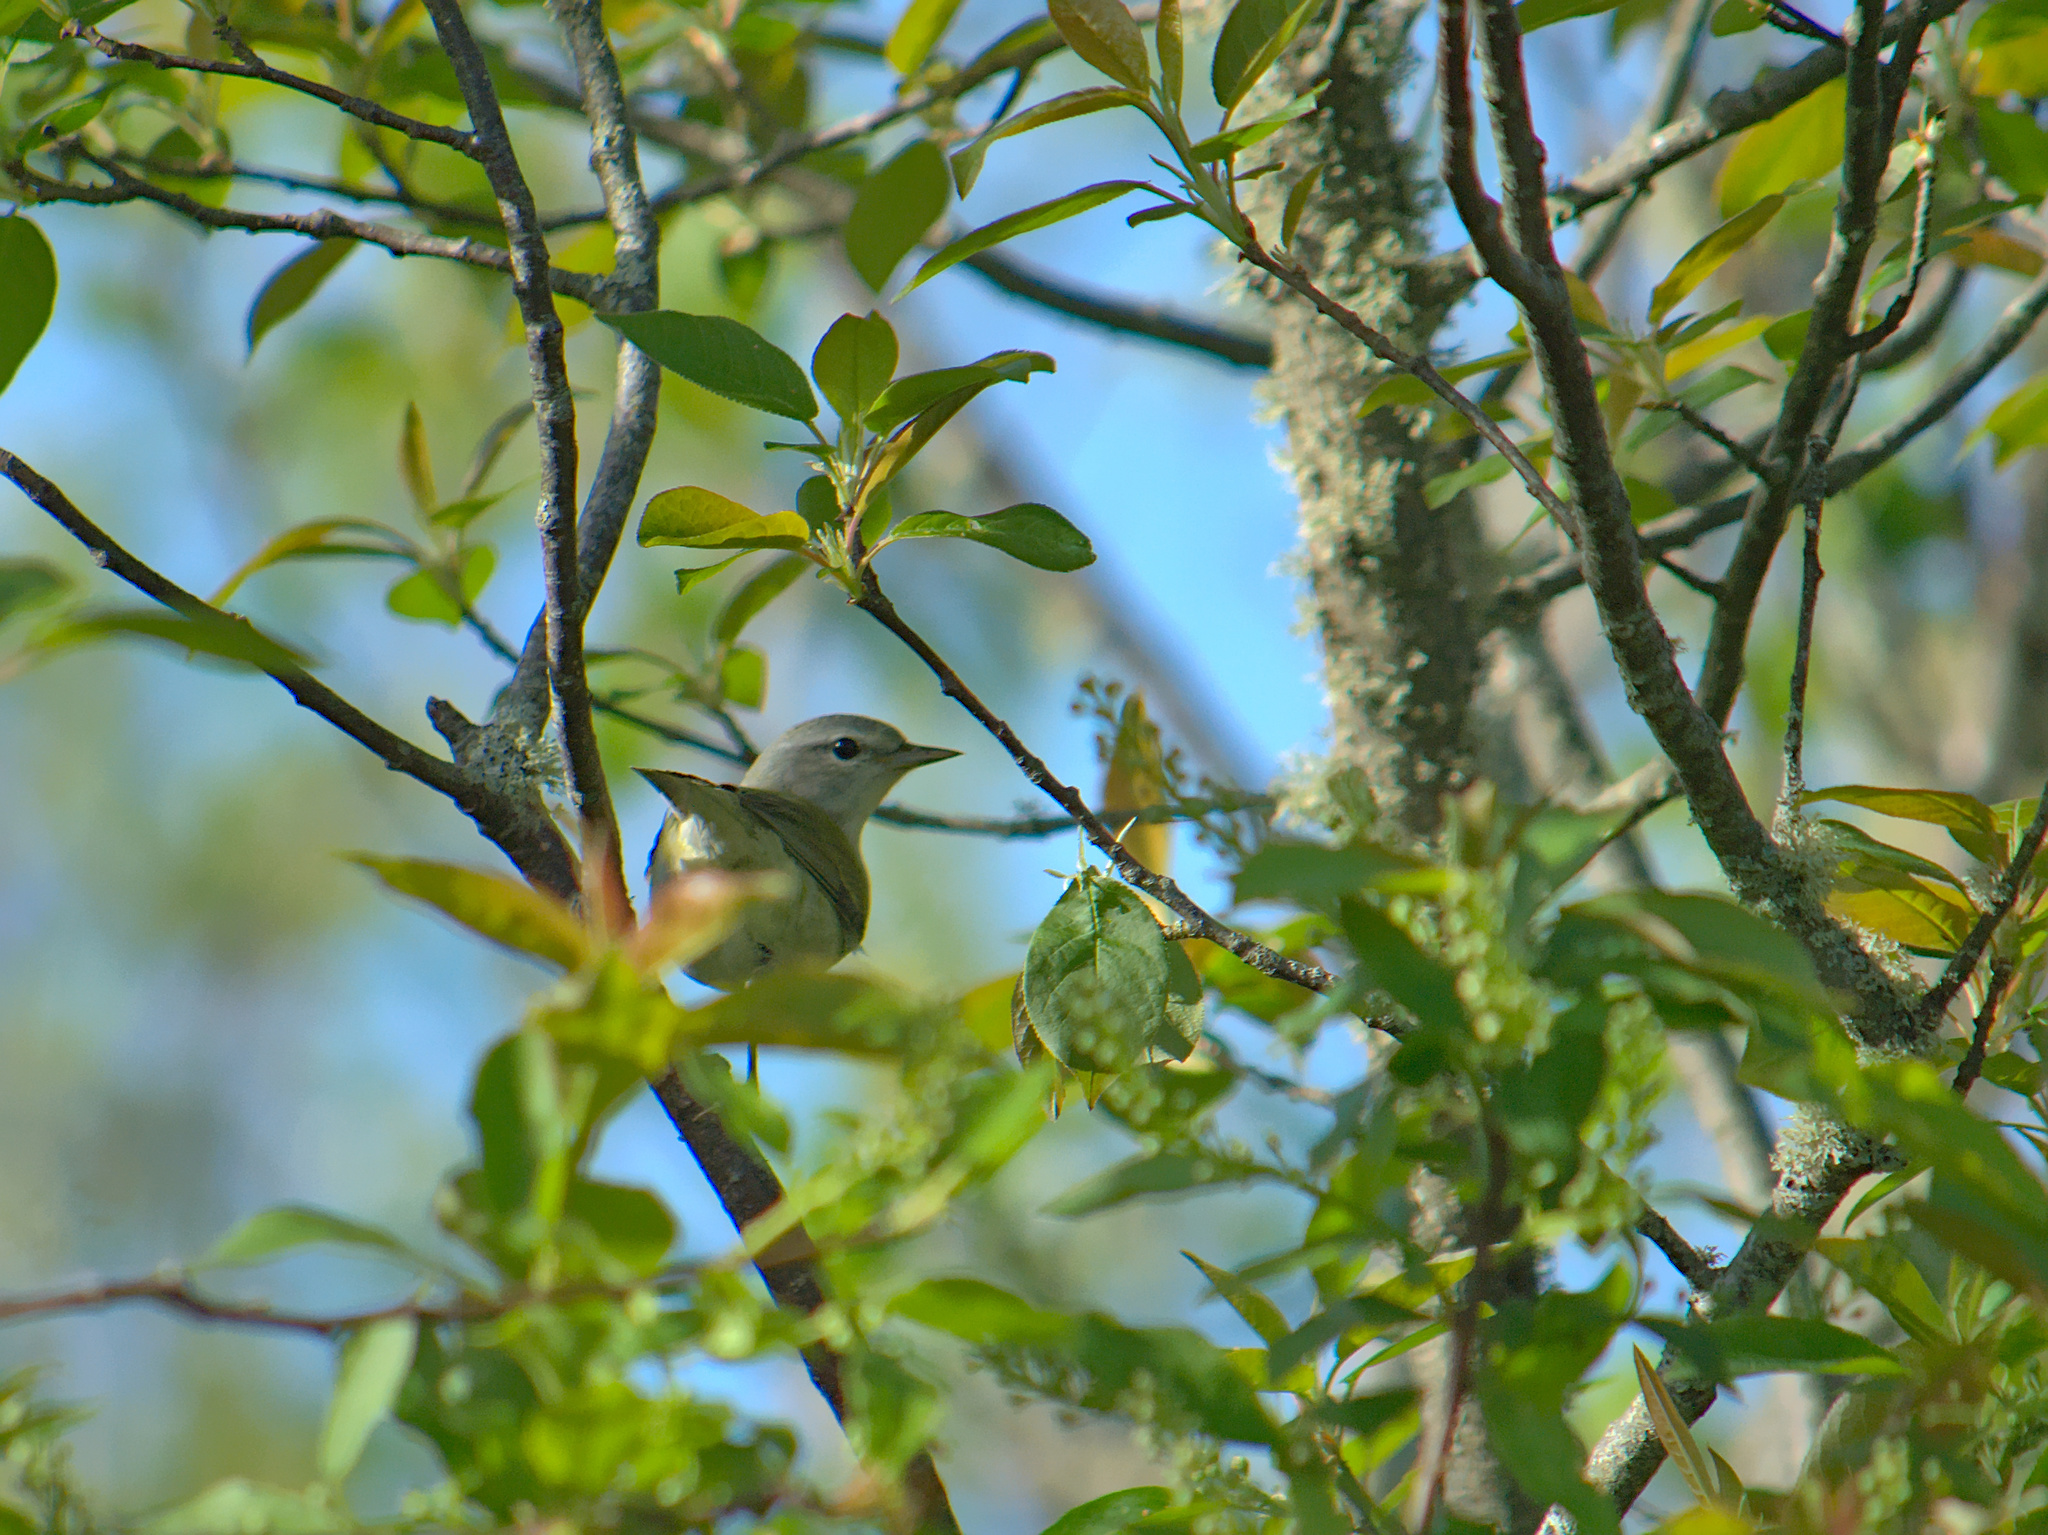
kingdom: Animalia
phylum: Chordata
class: Aves
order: Passeriformes
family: Parulidae
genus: Setophaga
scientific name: Setophaga americana
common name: Northern parula
